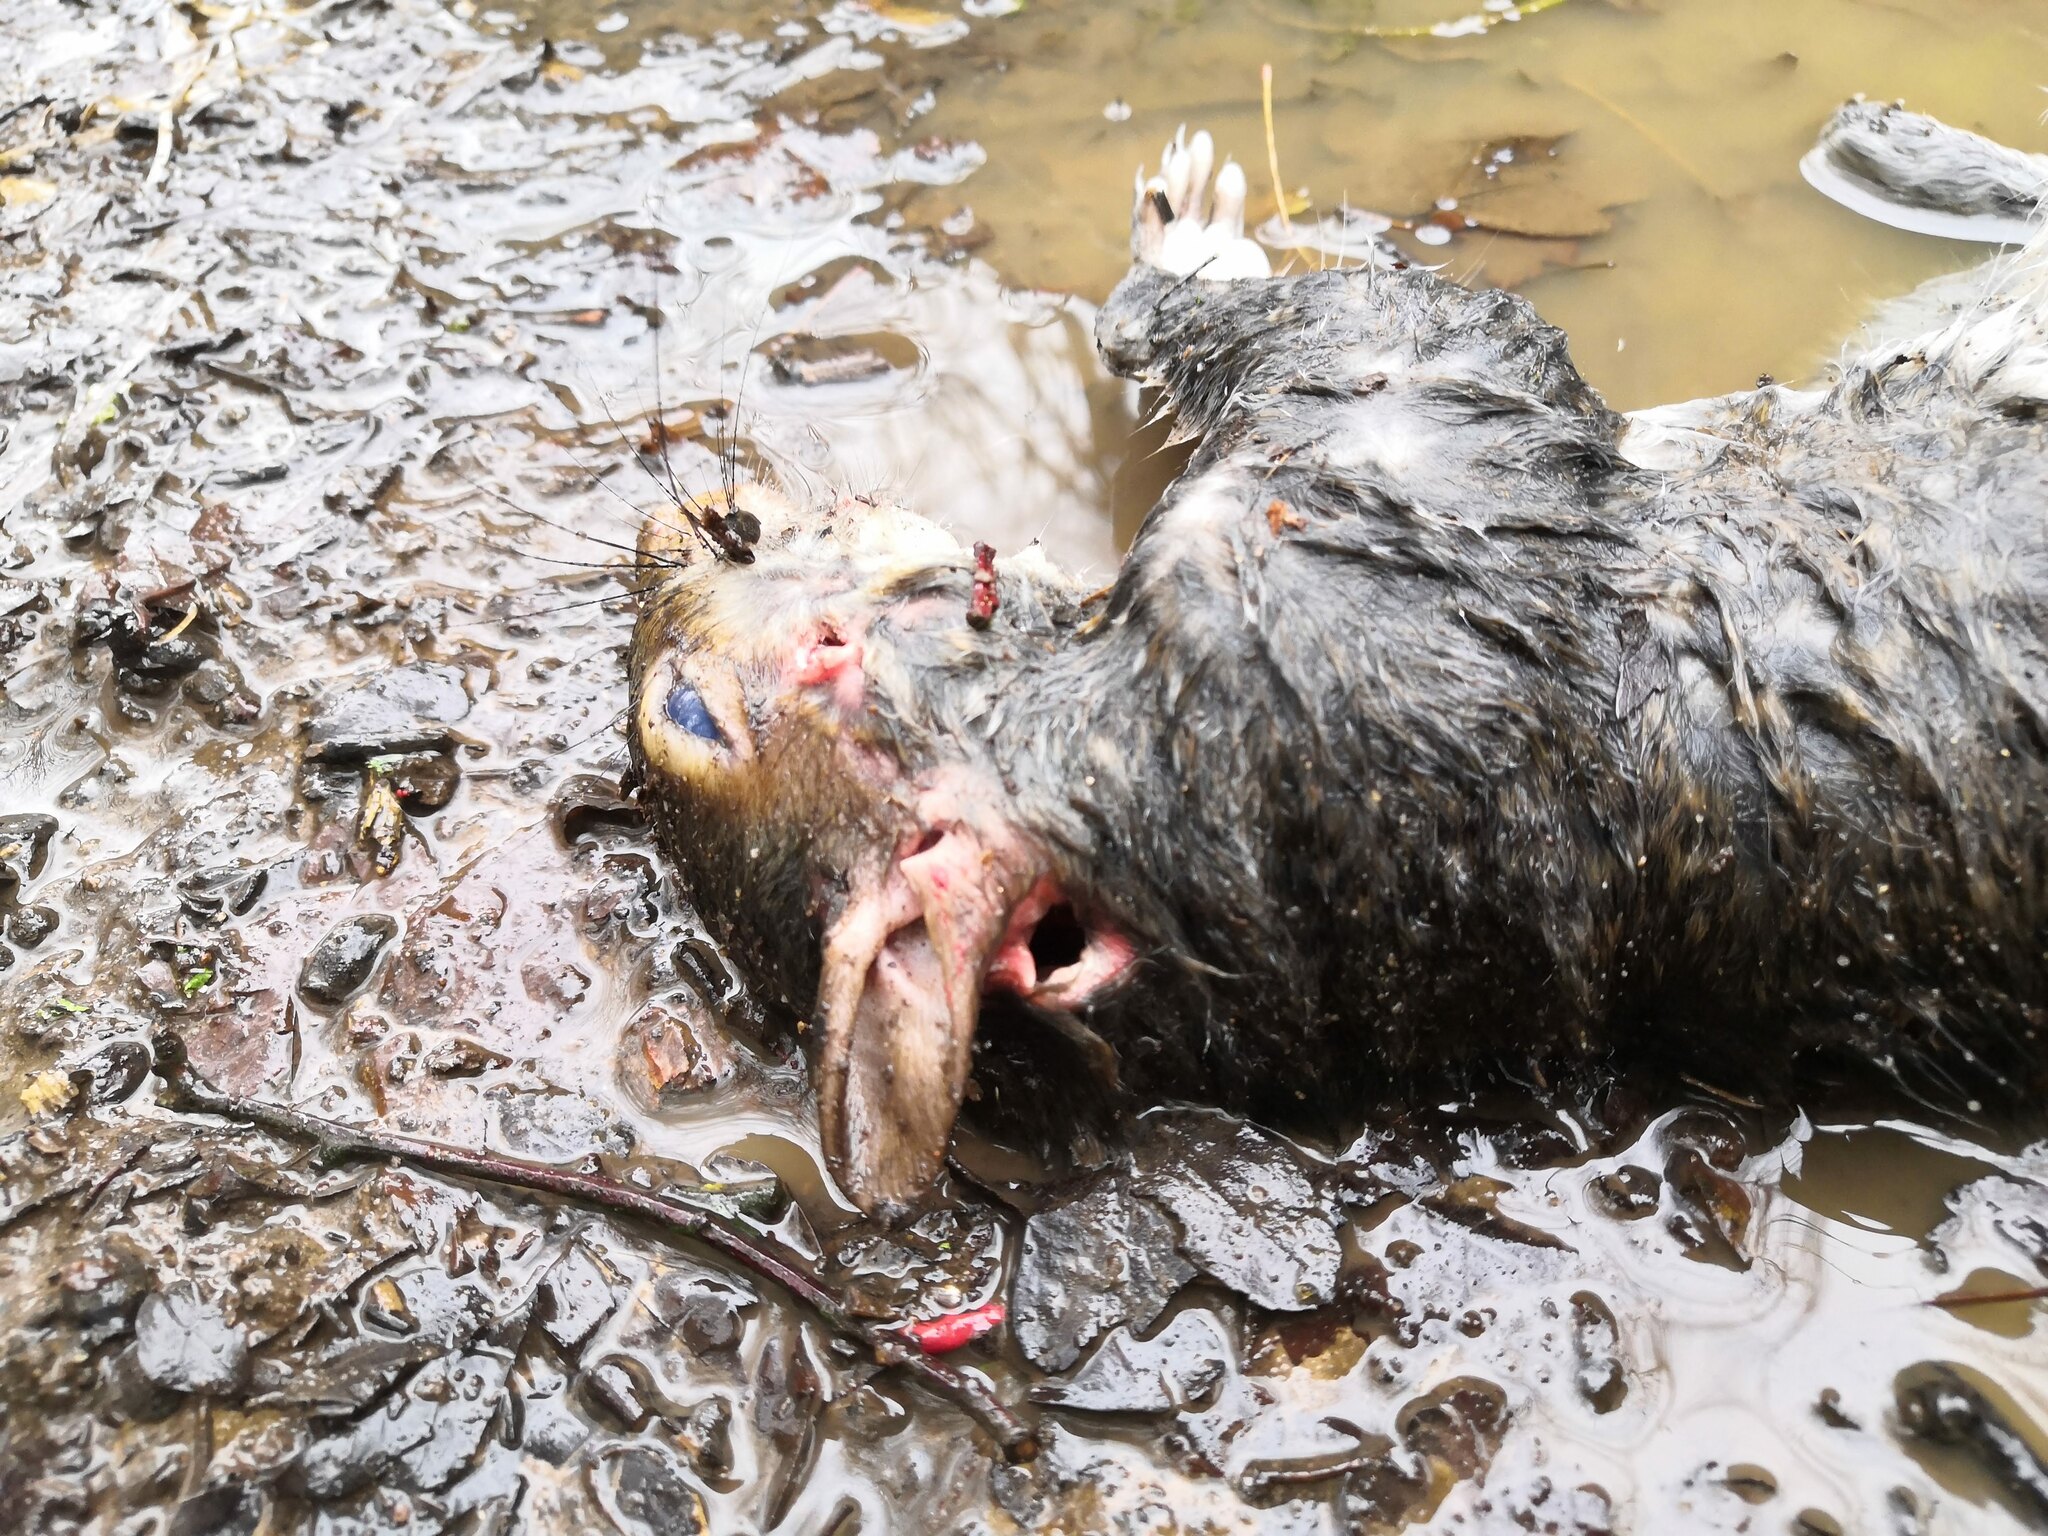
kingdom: Animalia
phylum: Chordata
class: Mammalia
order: Rodentia
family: Sciuridae
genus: Sciurus
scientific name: Sciurus carolinensis
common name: Eastern gray squirrel
